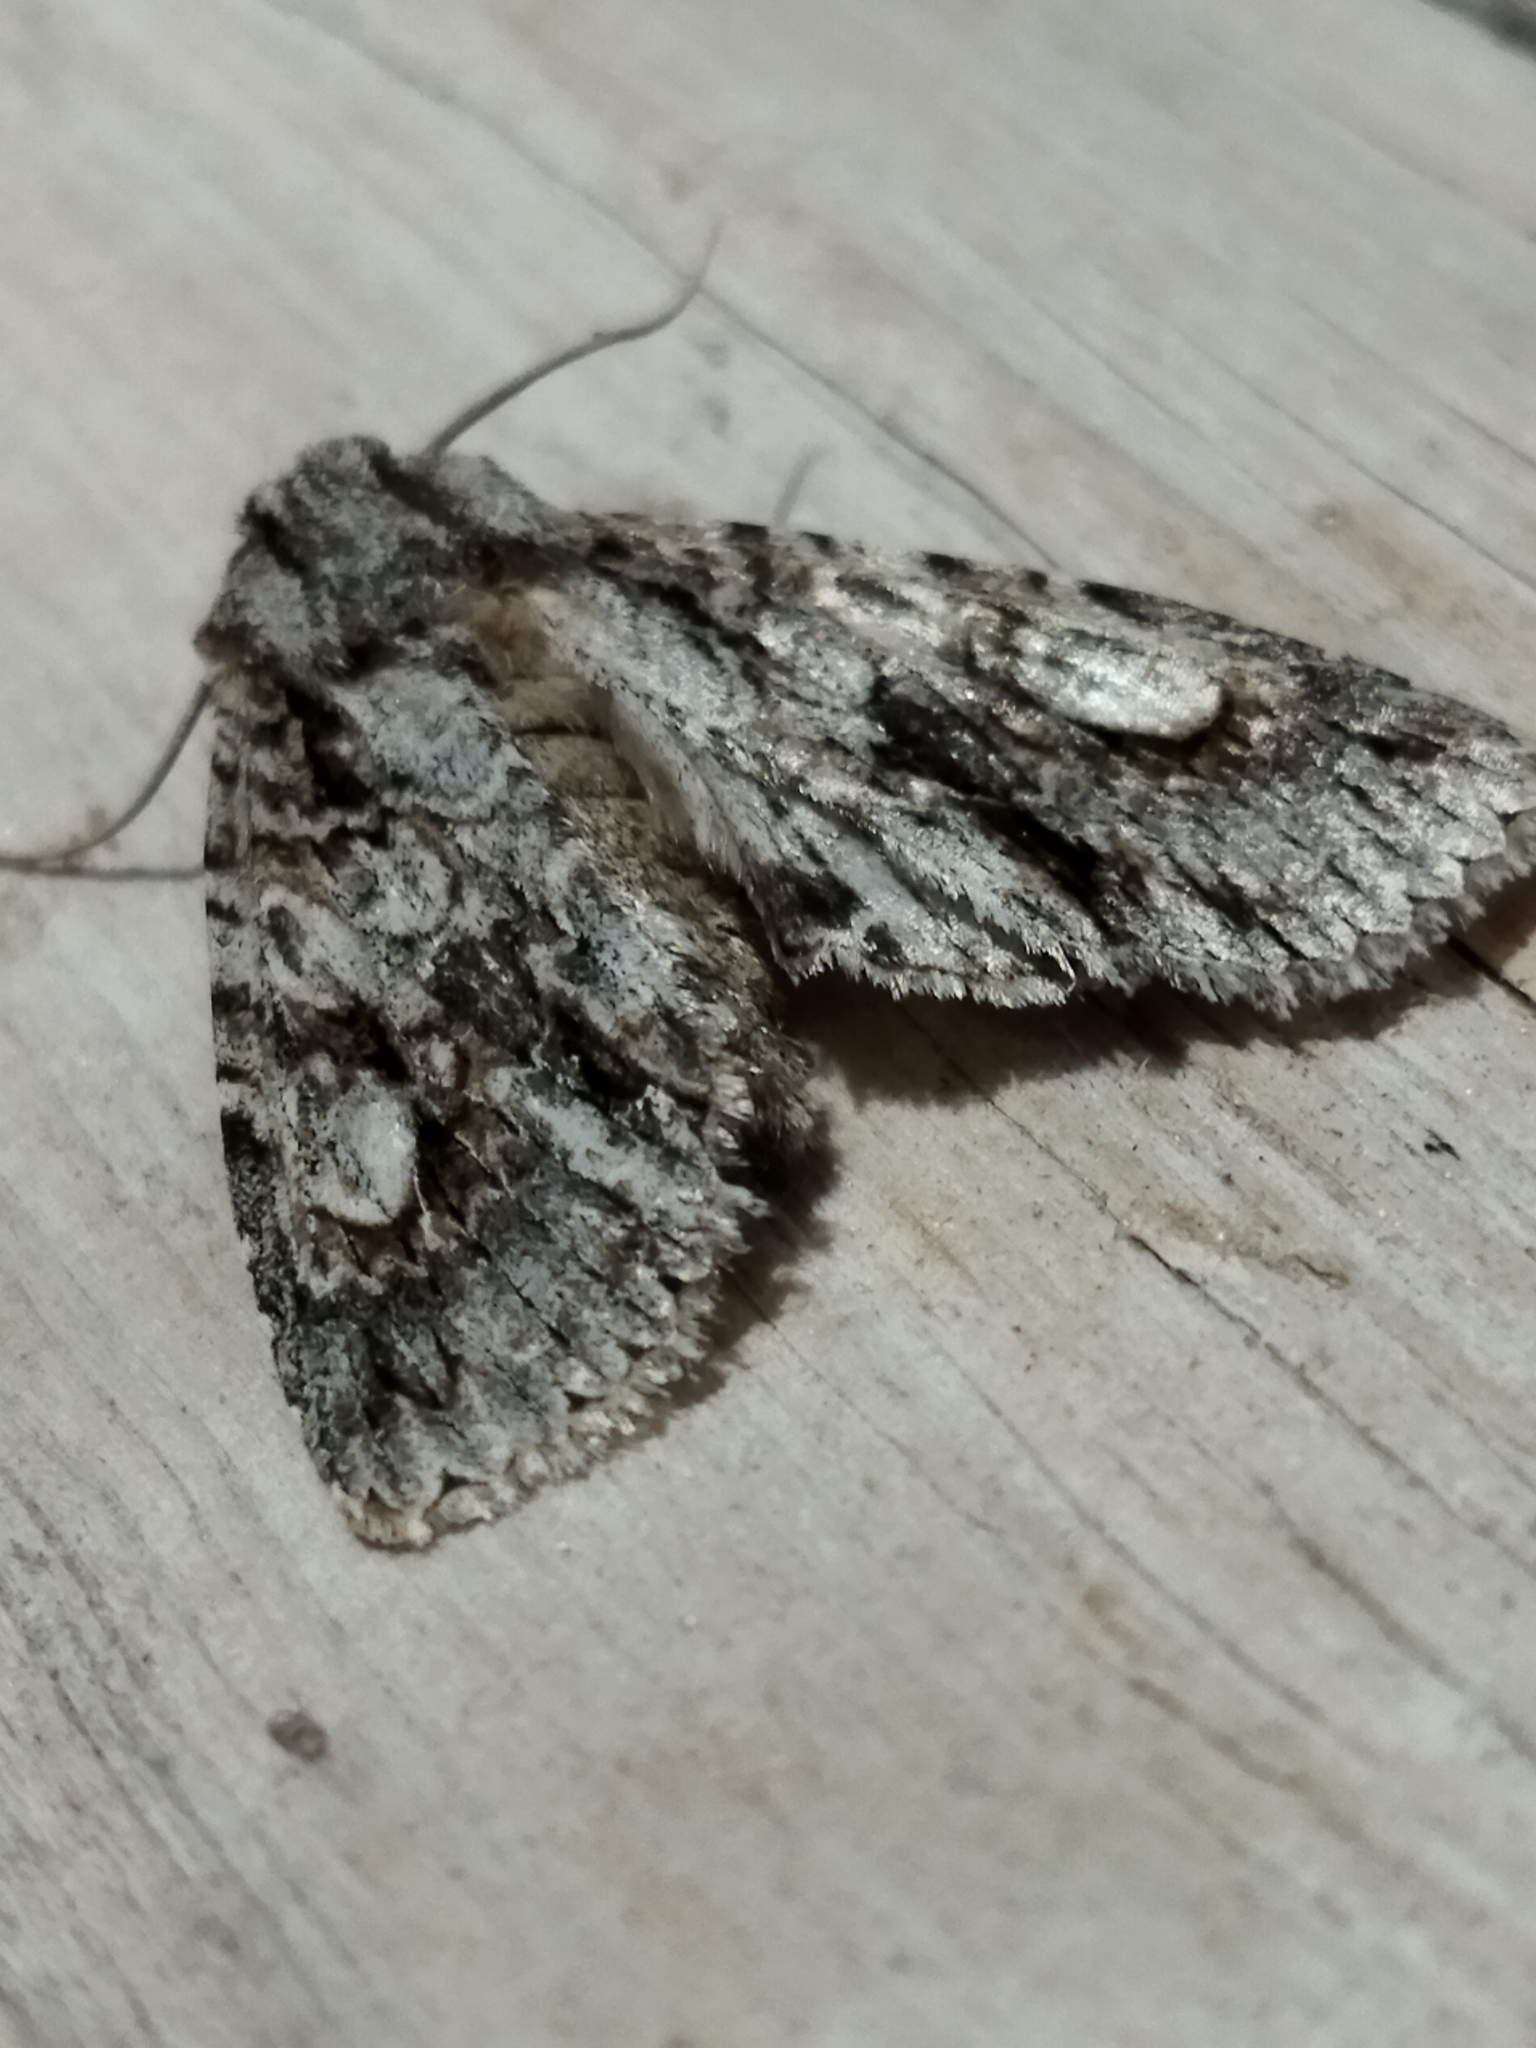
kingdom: Animalia
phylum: Arthropoda
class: Insecta
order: Lepidoptera
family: Noctuidae
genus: Meganephria
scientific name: Meganephria bimaculosa
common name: Double-spot brocade
